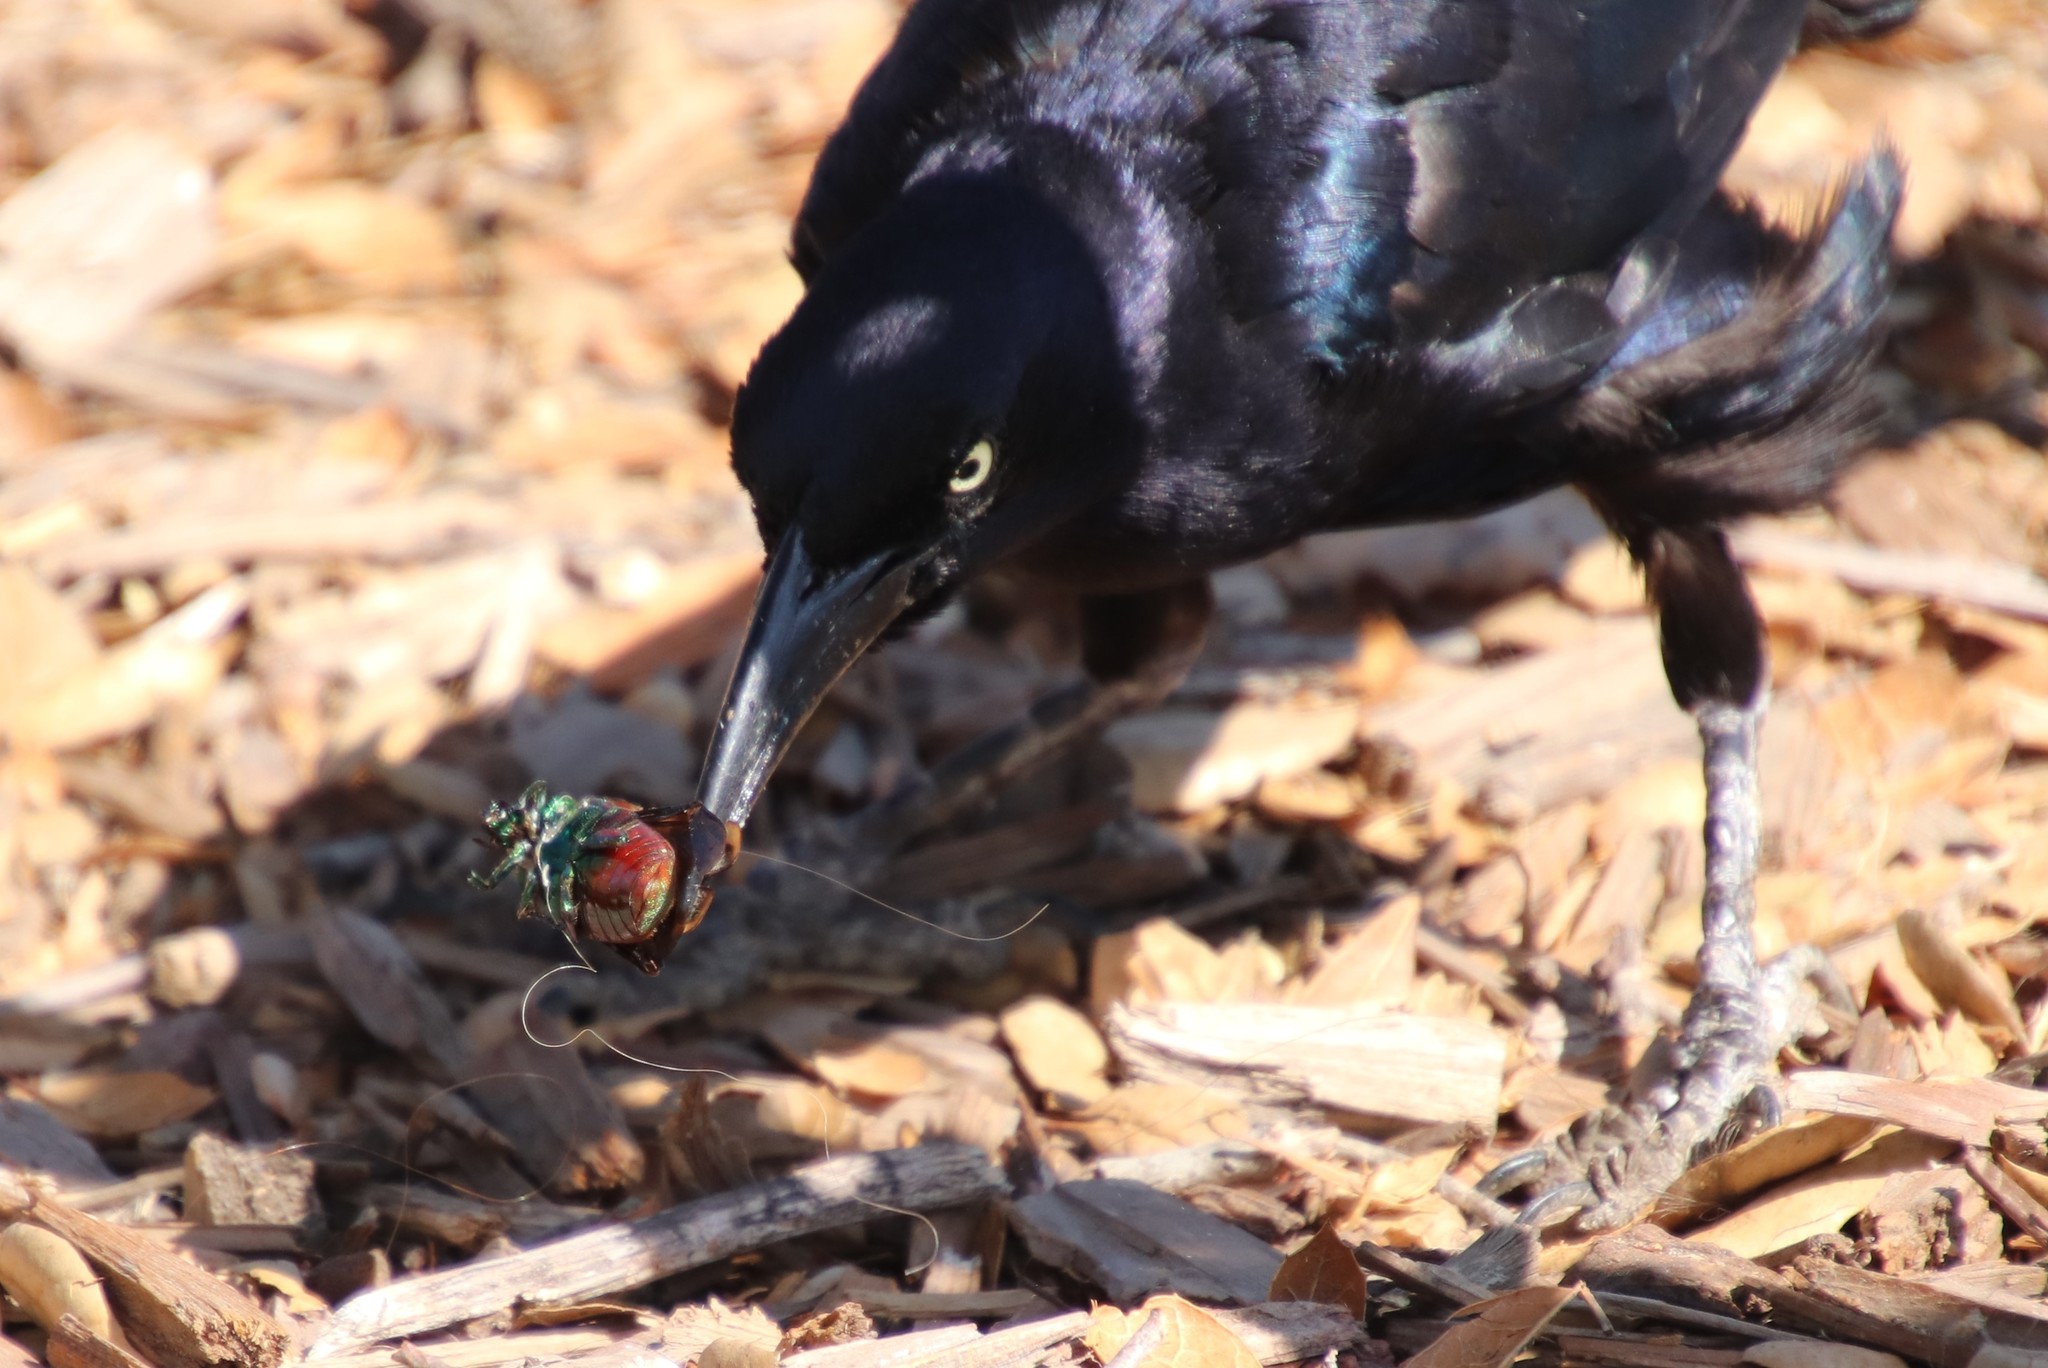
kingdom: Animalia
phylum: Arthropoda
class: Insecta
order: Coleoptera
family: Scarabaeidae
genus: Cotinis
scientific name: Cotinis mutabilis
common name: Figeater beetle
